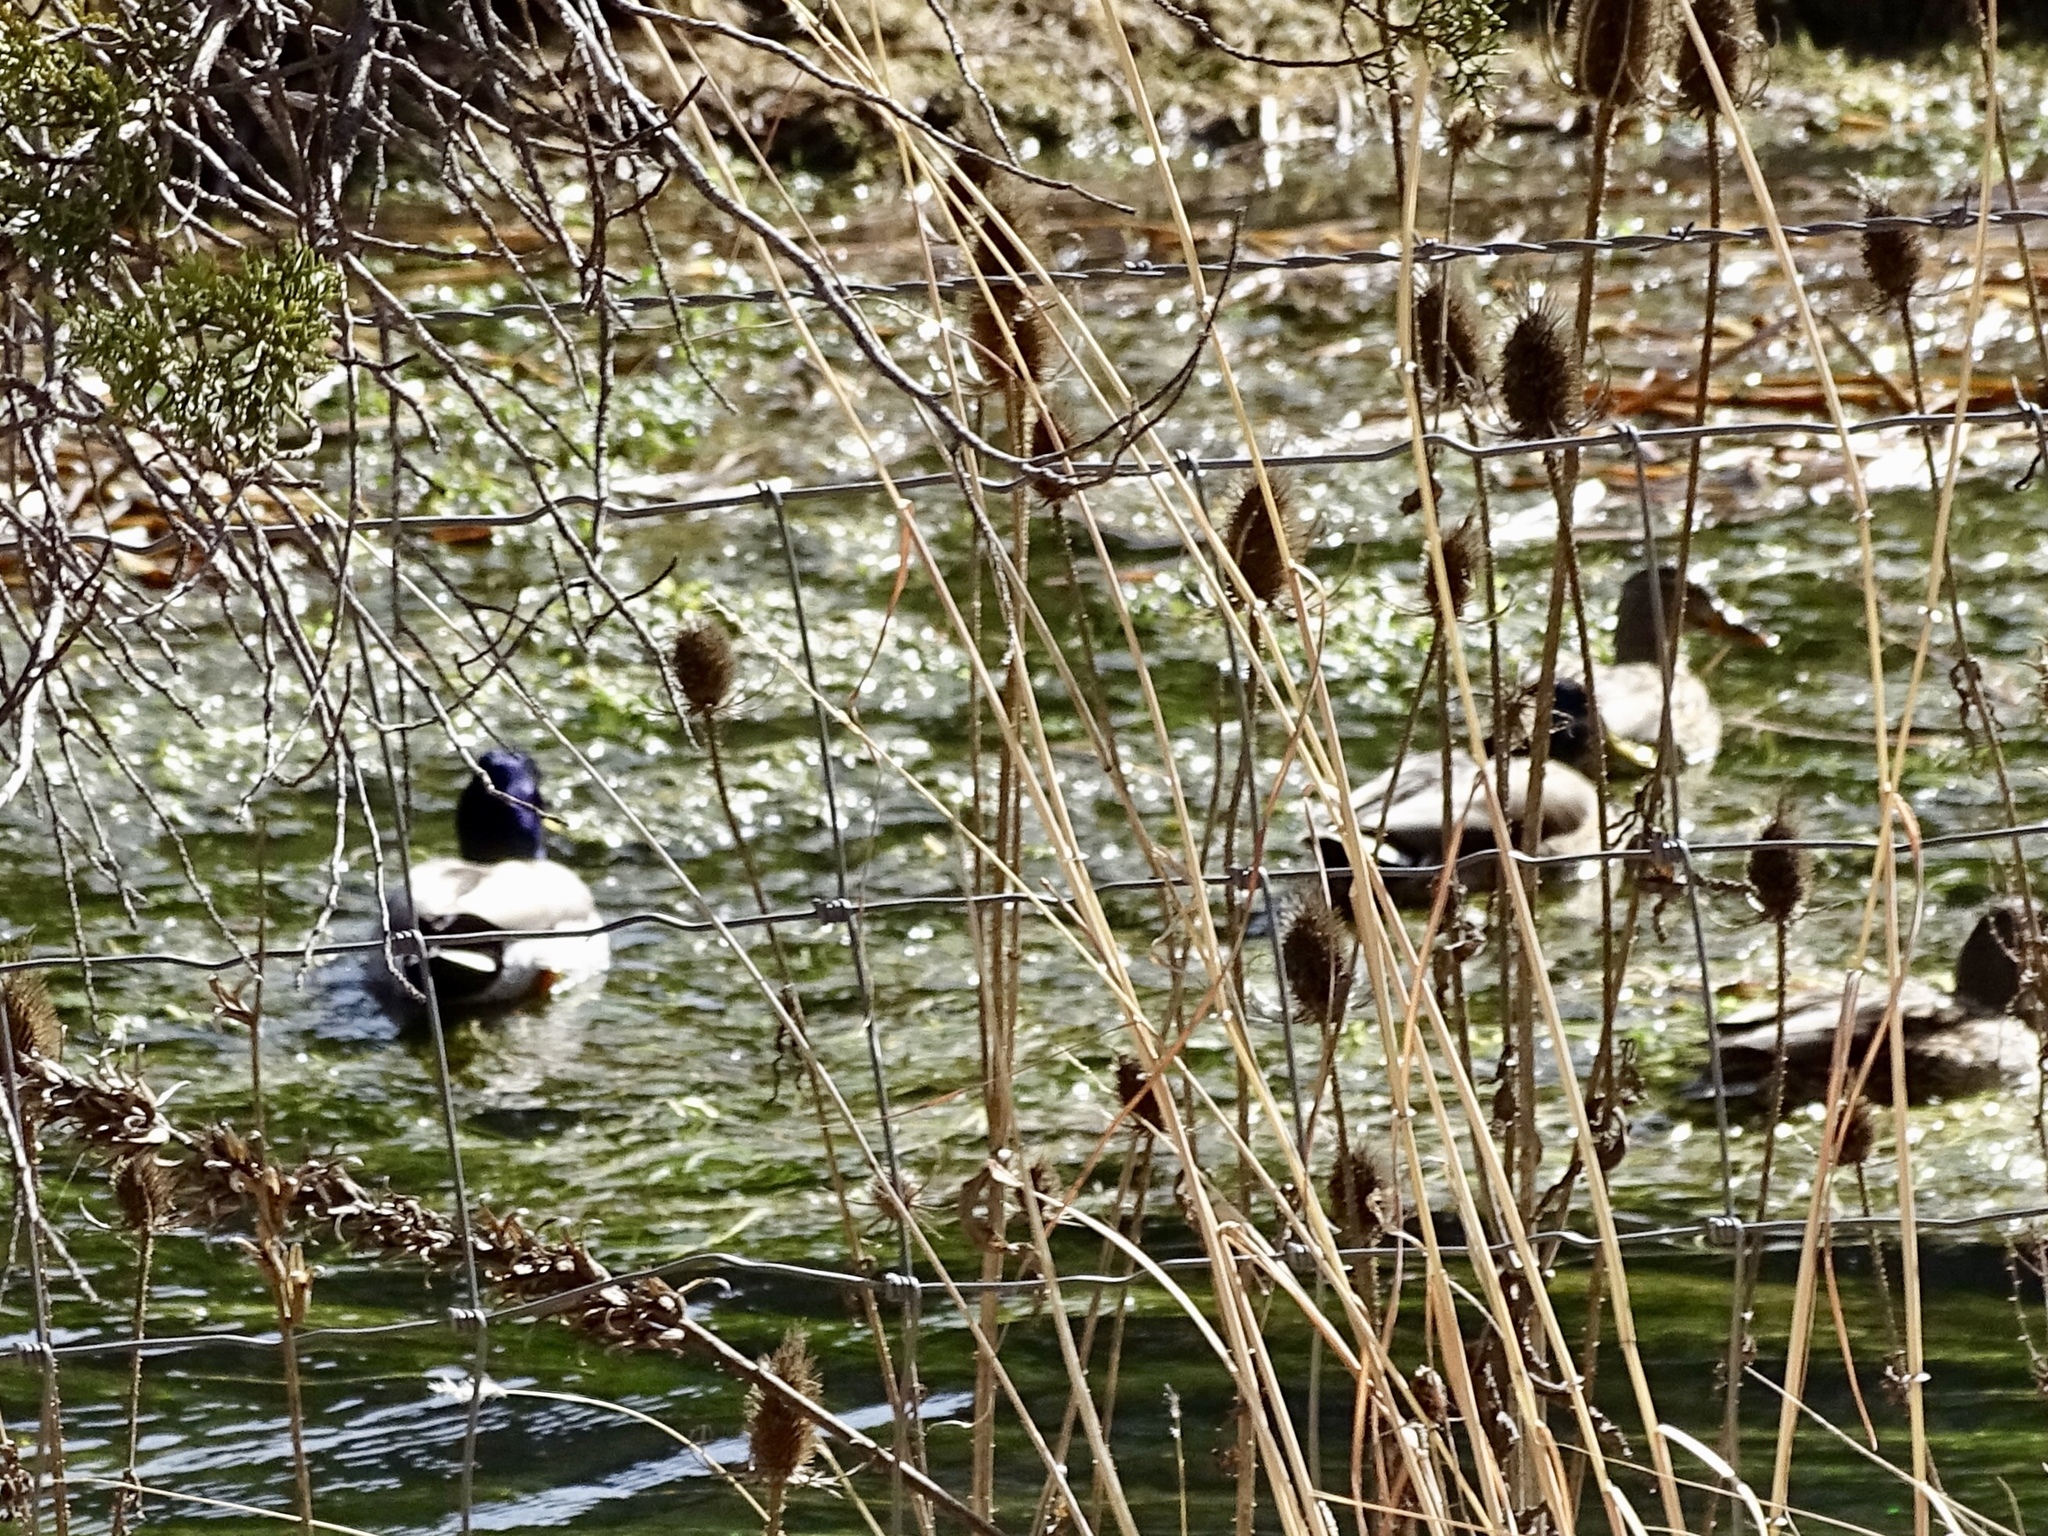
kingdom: Animalia
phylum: Chordata
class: Aves
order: Anseriformes
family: Anatidae
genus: Anas
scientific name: Anas platyrhynchos
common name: Mallard
